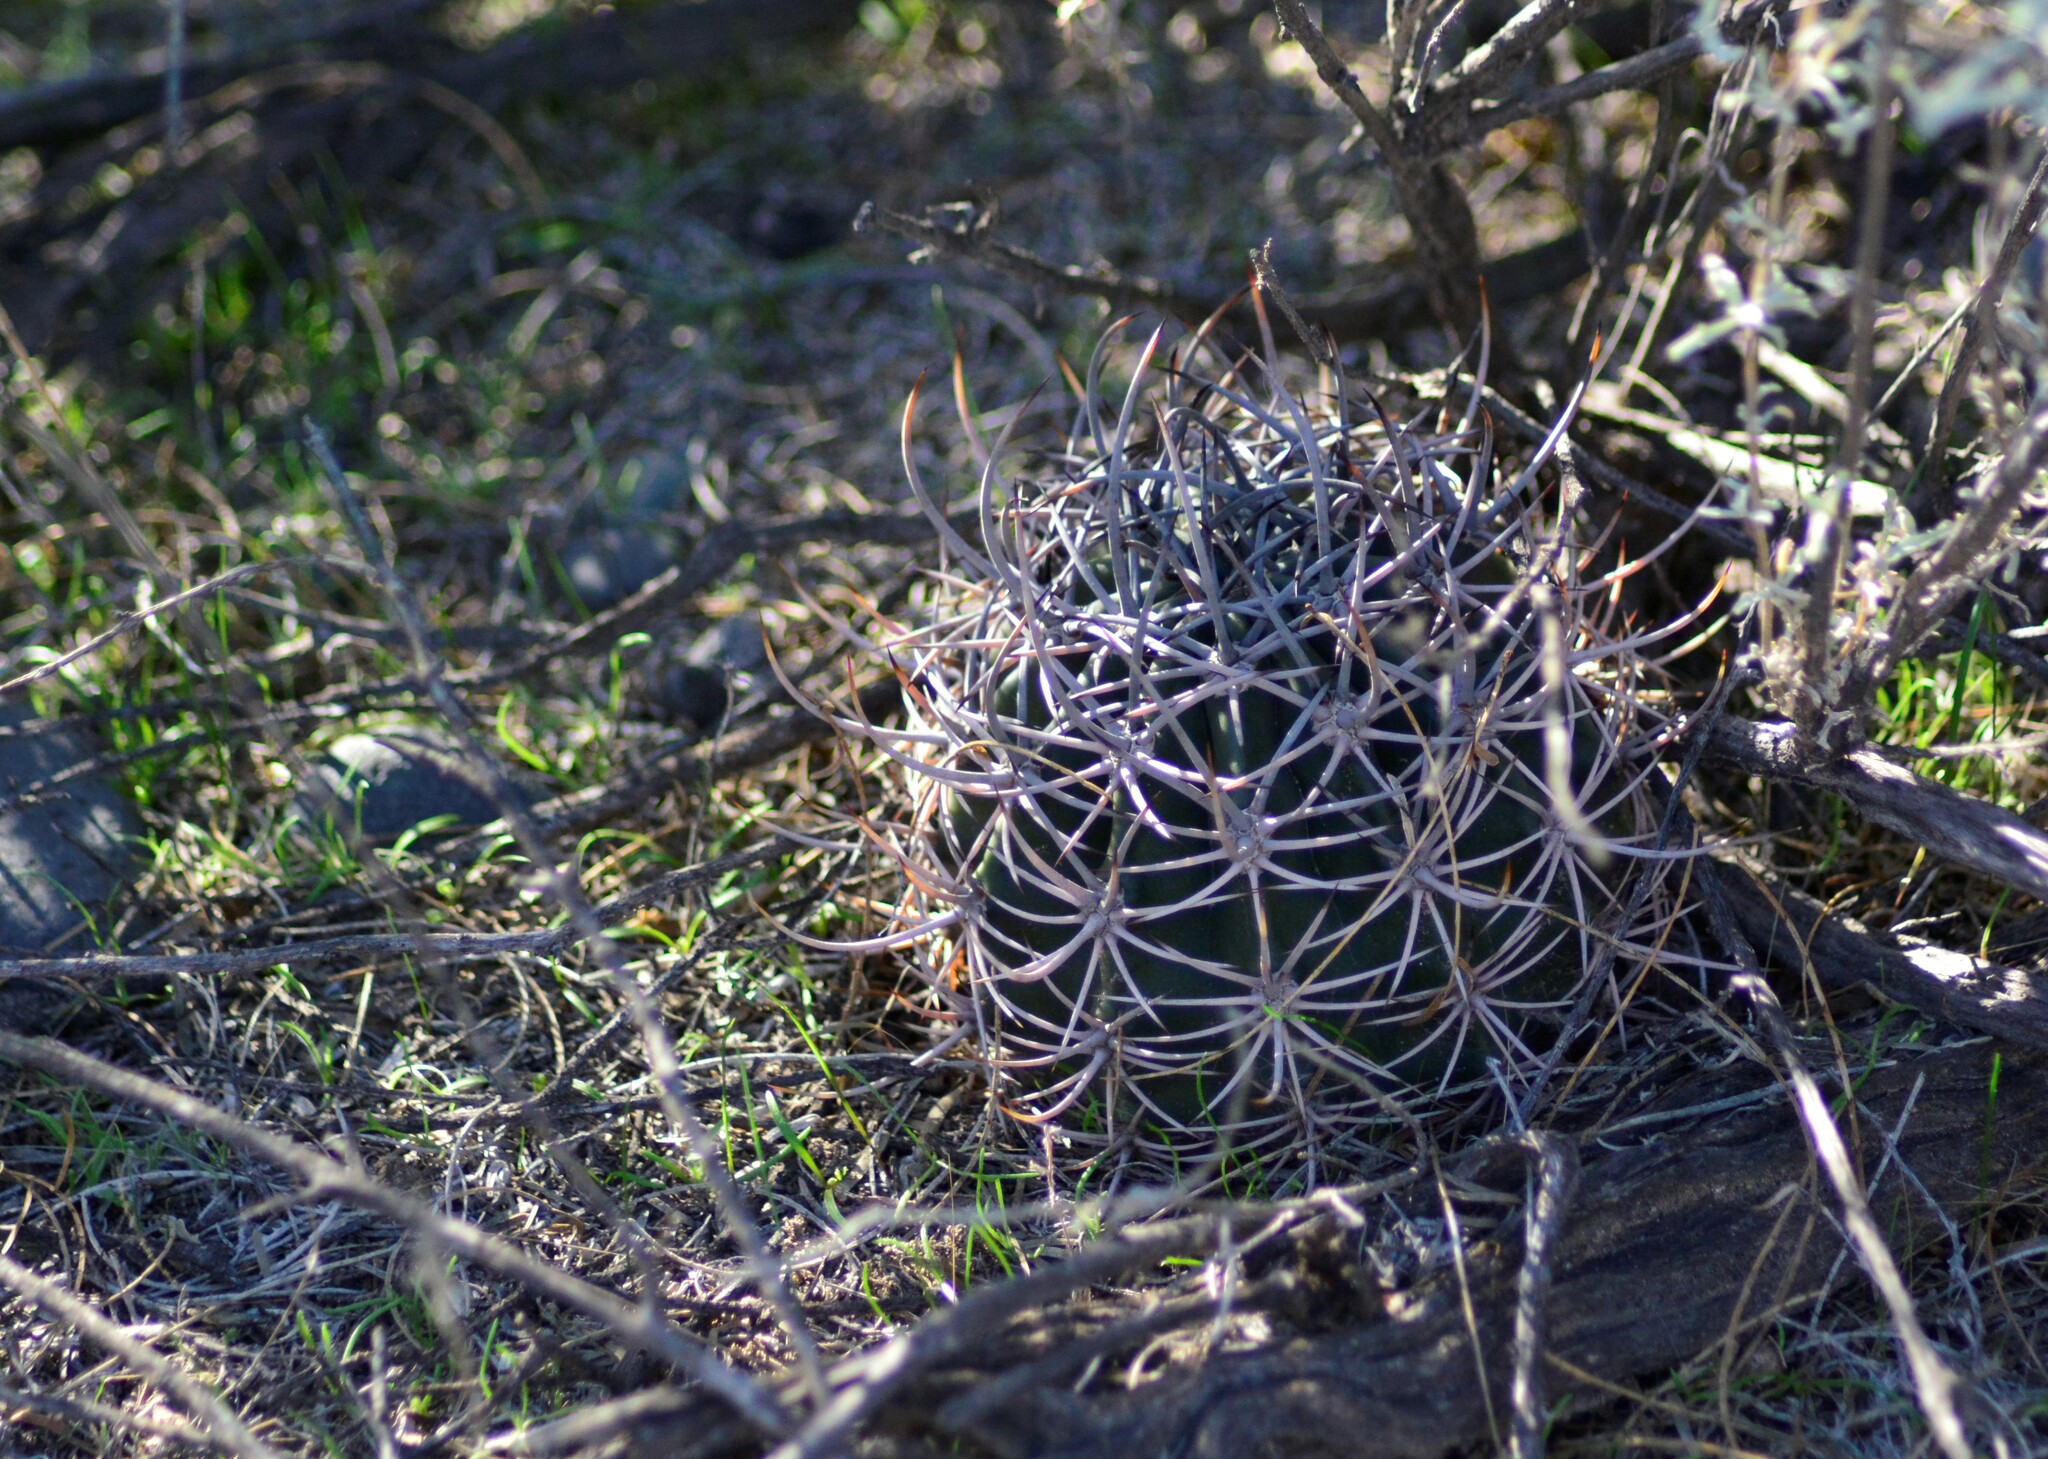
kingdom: Plantae
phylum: Tracheophyta
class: Magnoliopsida
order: Caryophyllales
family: Cactaceae
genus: Acanthocalycium
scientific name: Acanthocalycium leucanthum
